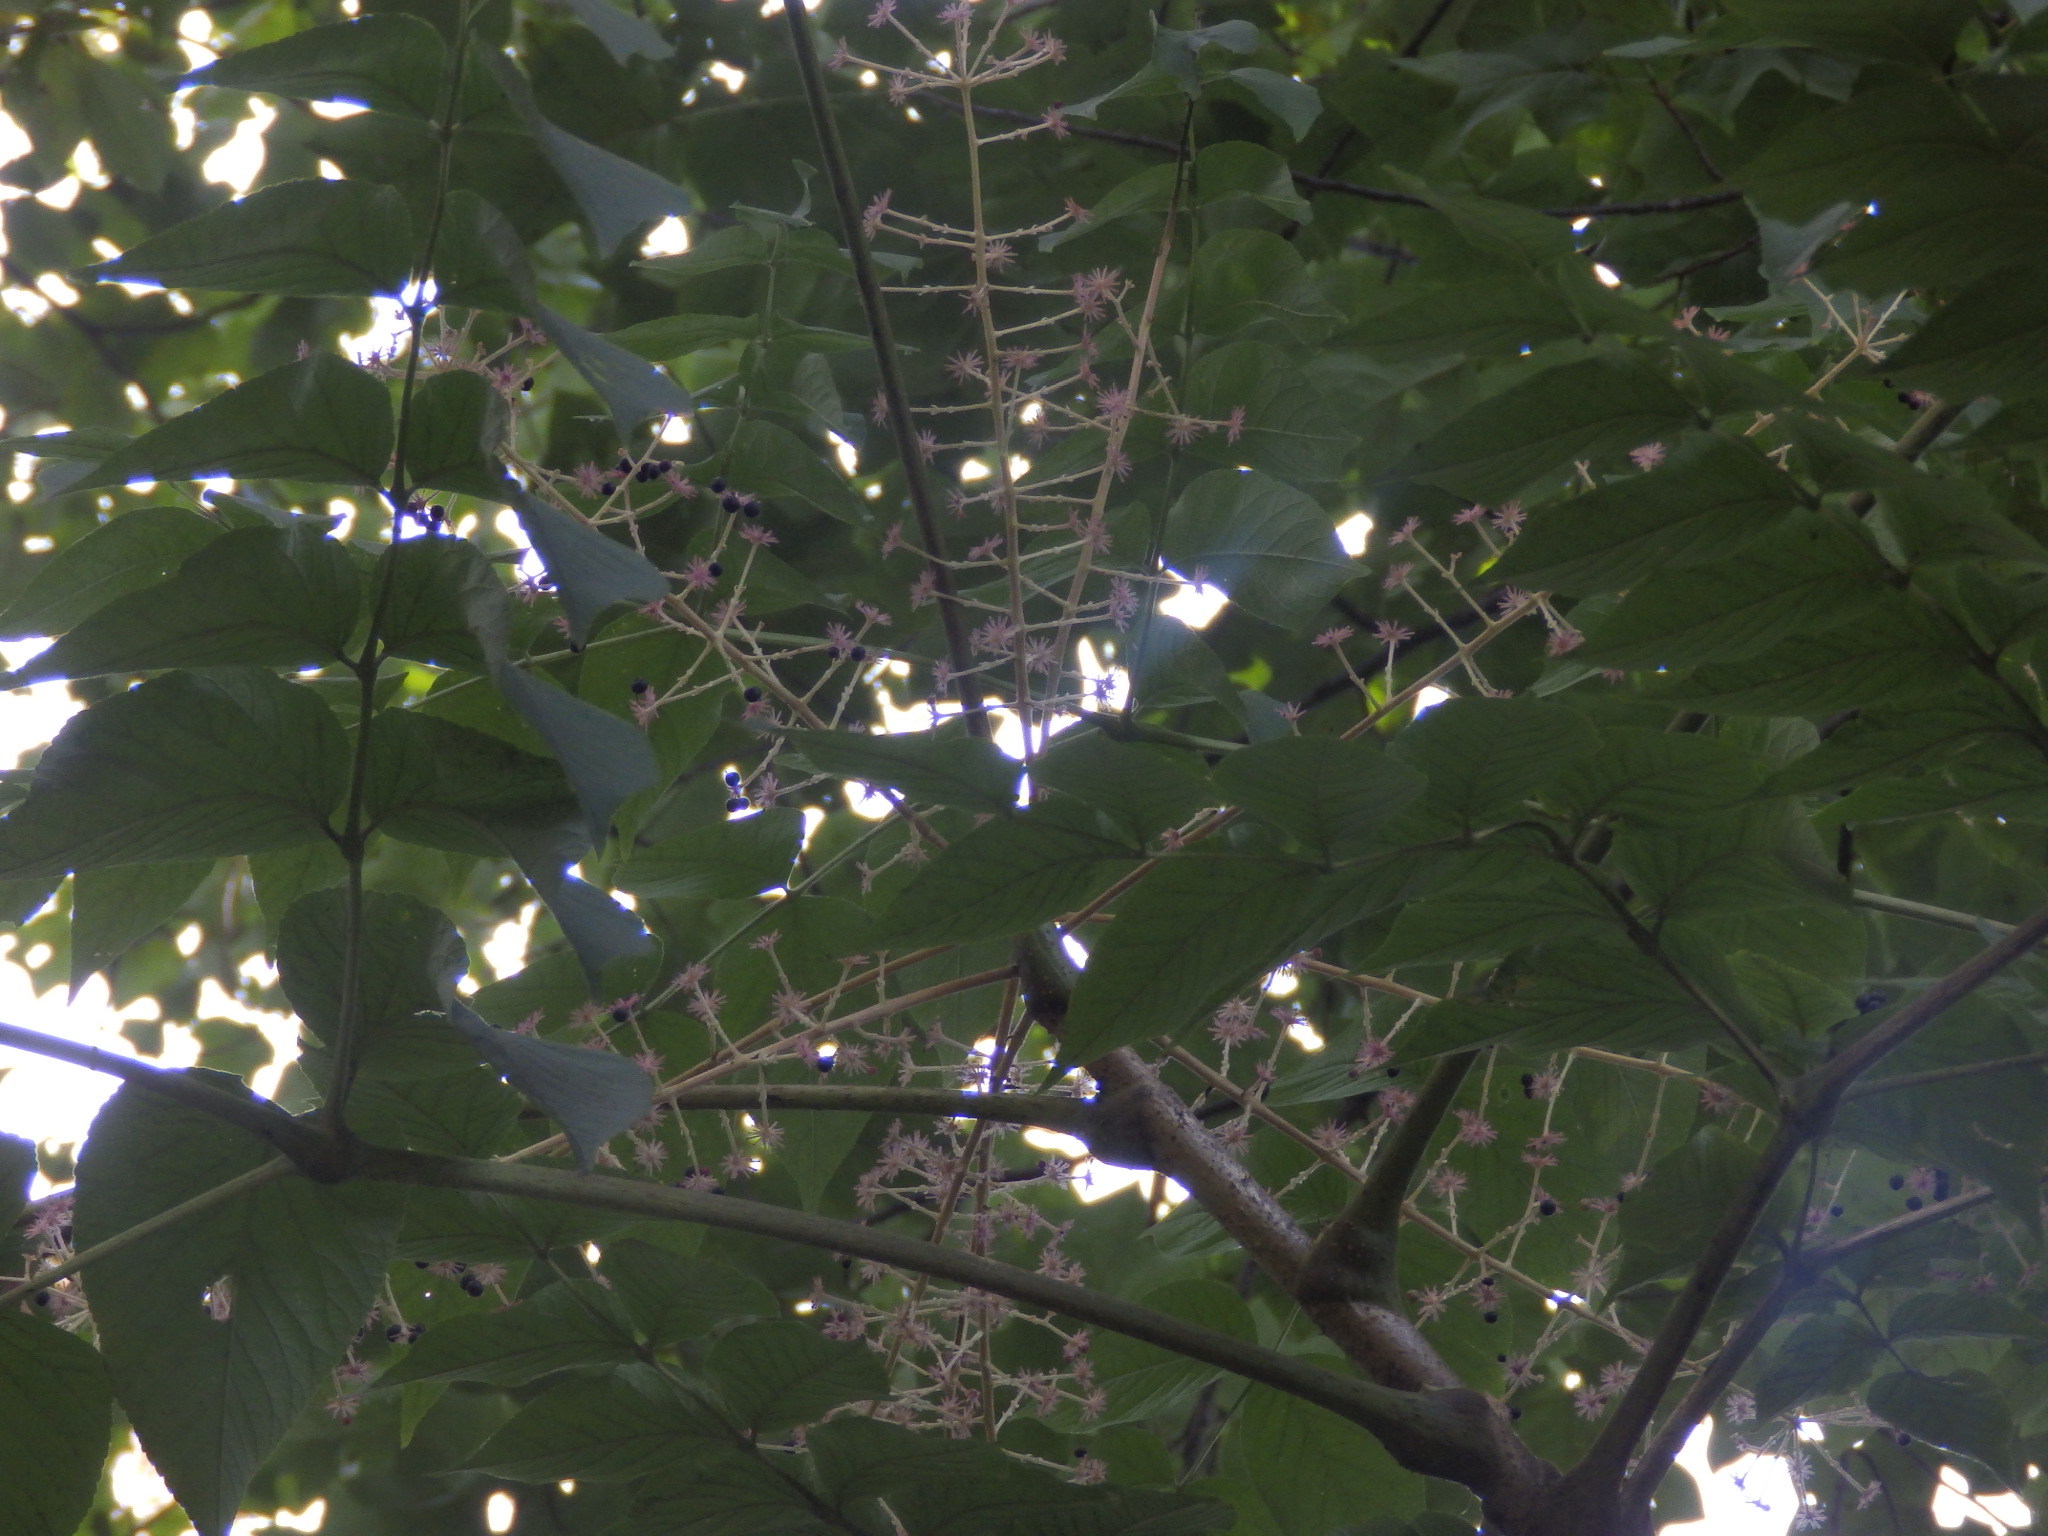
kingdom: Plantae
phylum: Tracheophyta
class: Magnoliopsida
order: Apiales
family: Araliaceae
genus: Aralia
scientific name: Aralia elata
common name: Japanese angelica-tree
